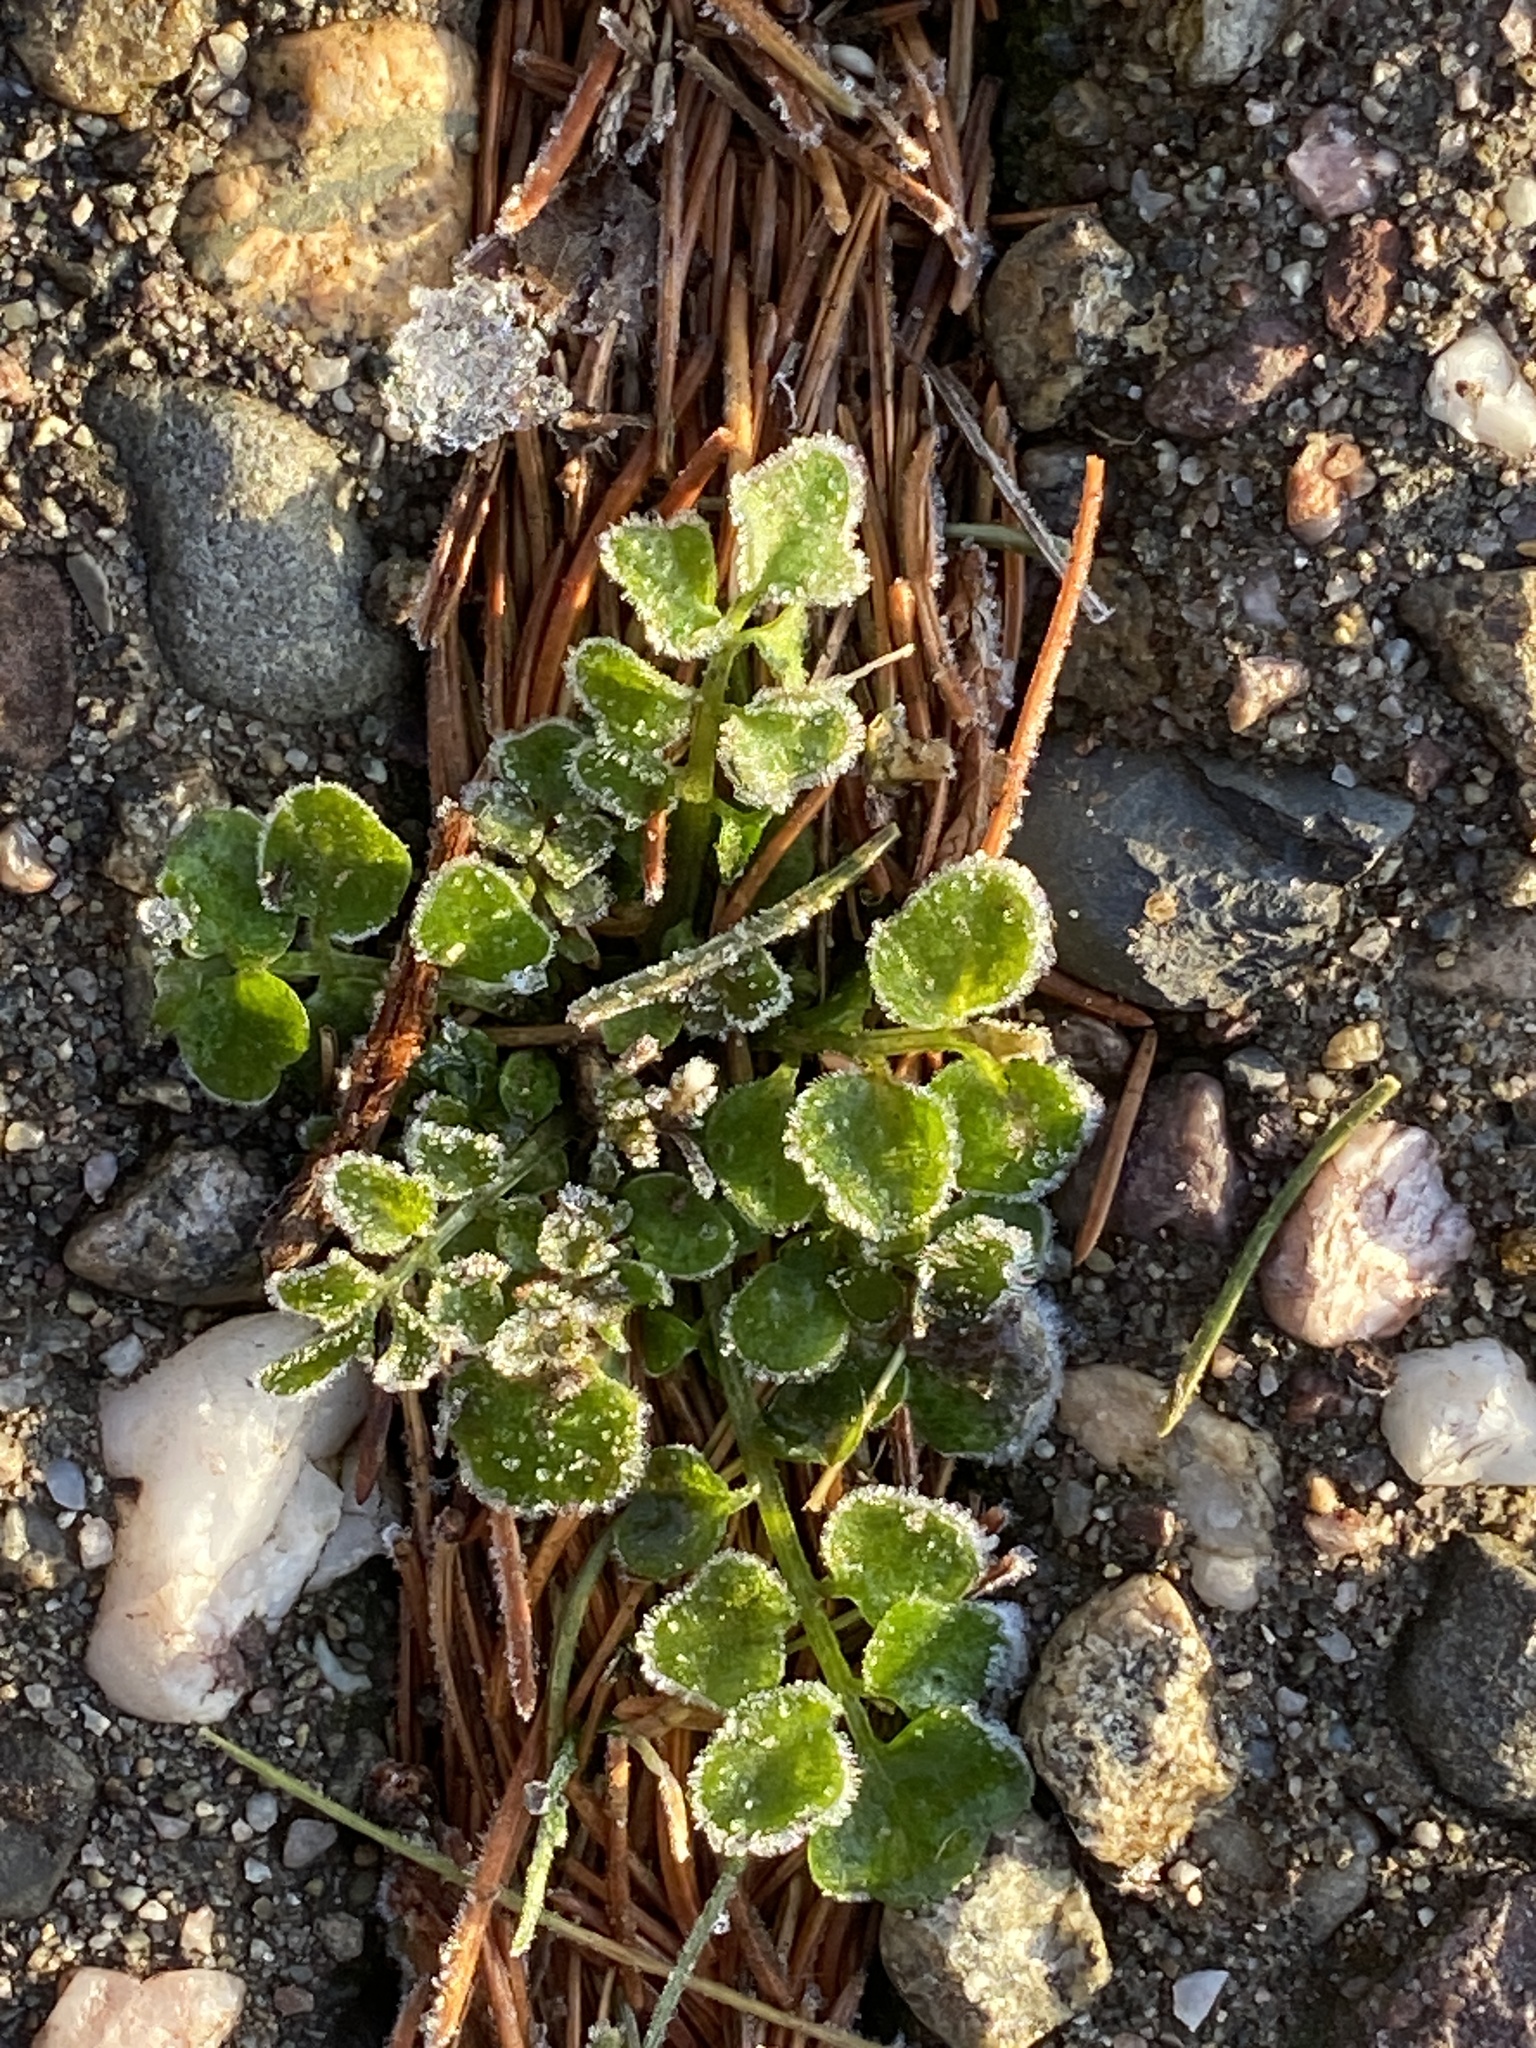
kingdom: Plantae
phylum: Tracheophyta
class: Magnoliopsida
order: Brassicales
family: Brassicaceae
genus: Cardamine
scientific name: Cardamine hirsuta
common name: Hairy bittercress
